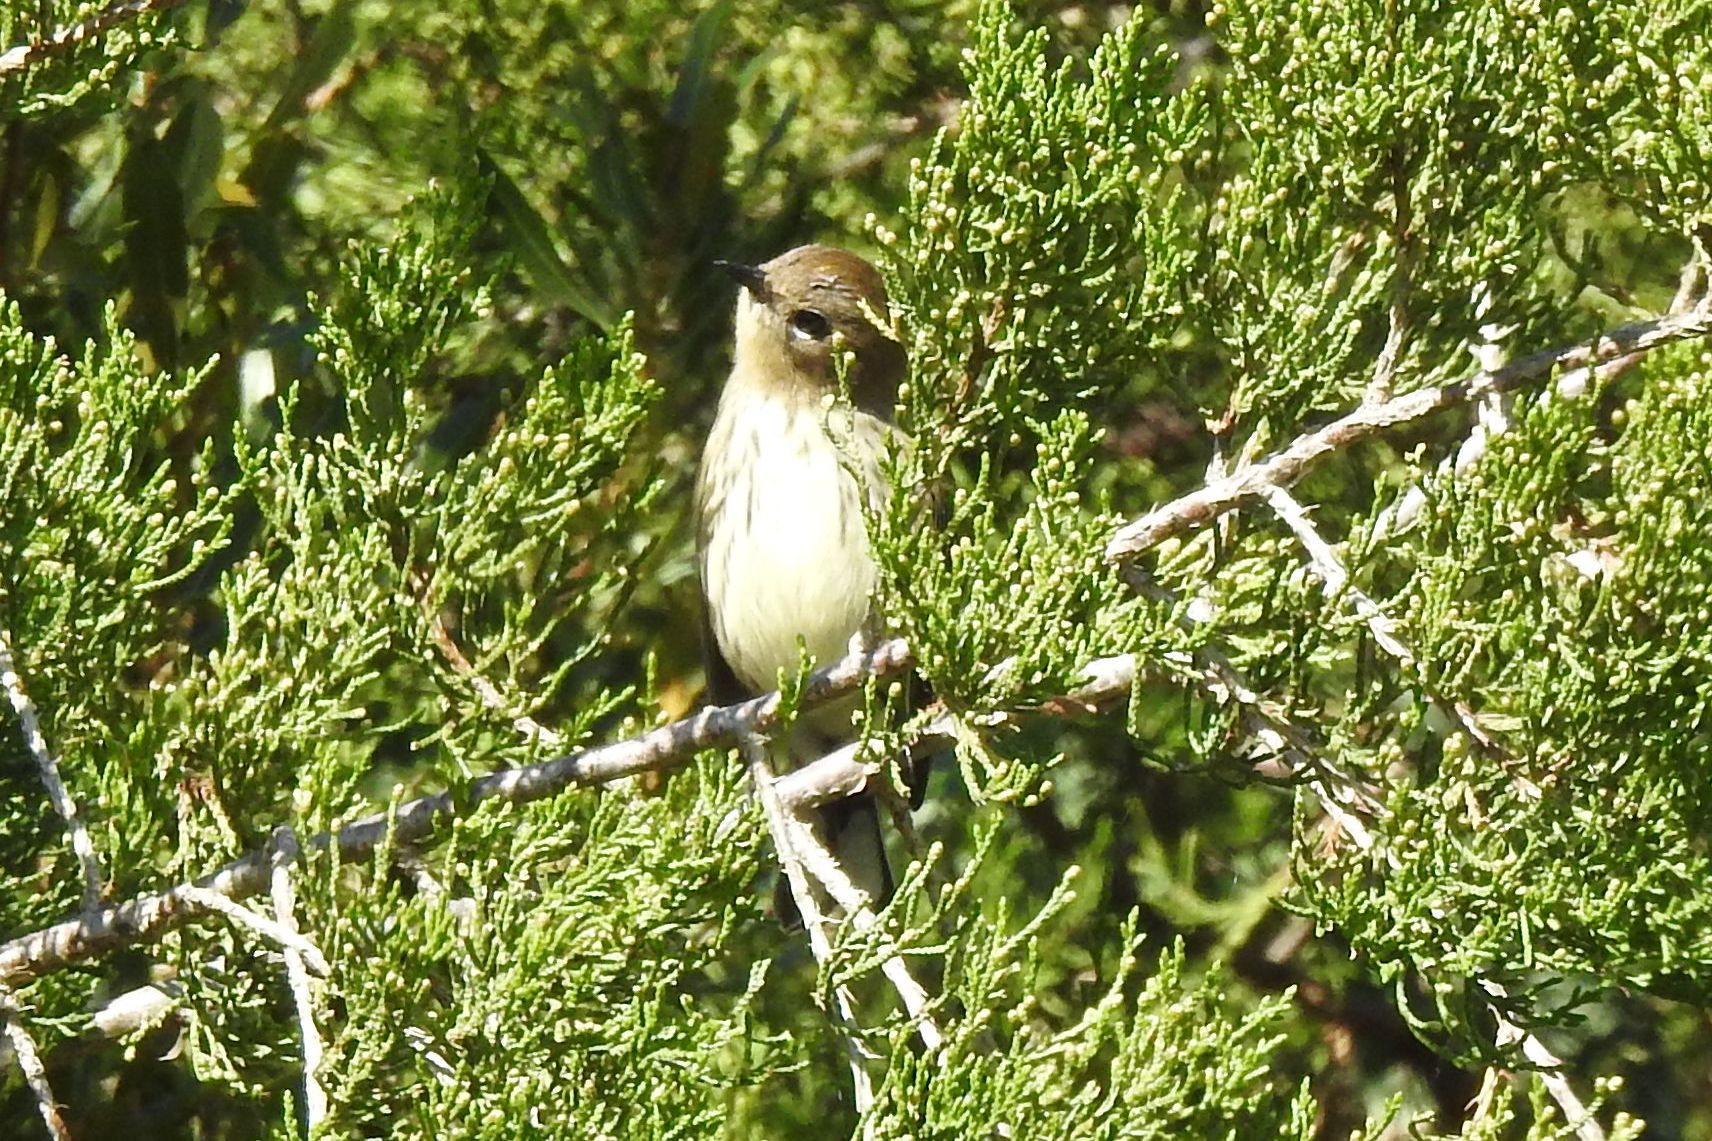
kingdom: Animalia
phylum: Chordata
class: Aves
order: Passeriformes
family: Parulidae
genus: Setophaga
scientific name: Setophaga coronata
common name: Myrtle warbler
